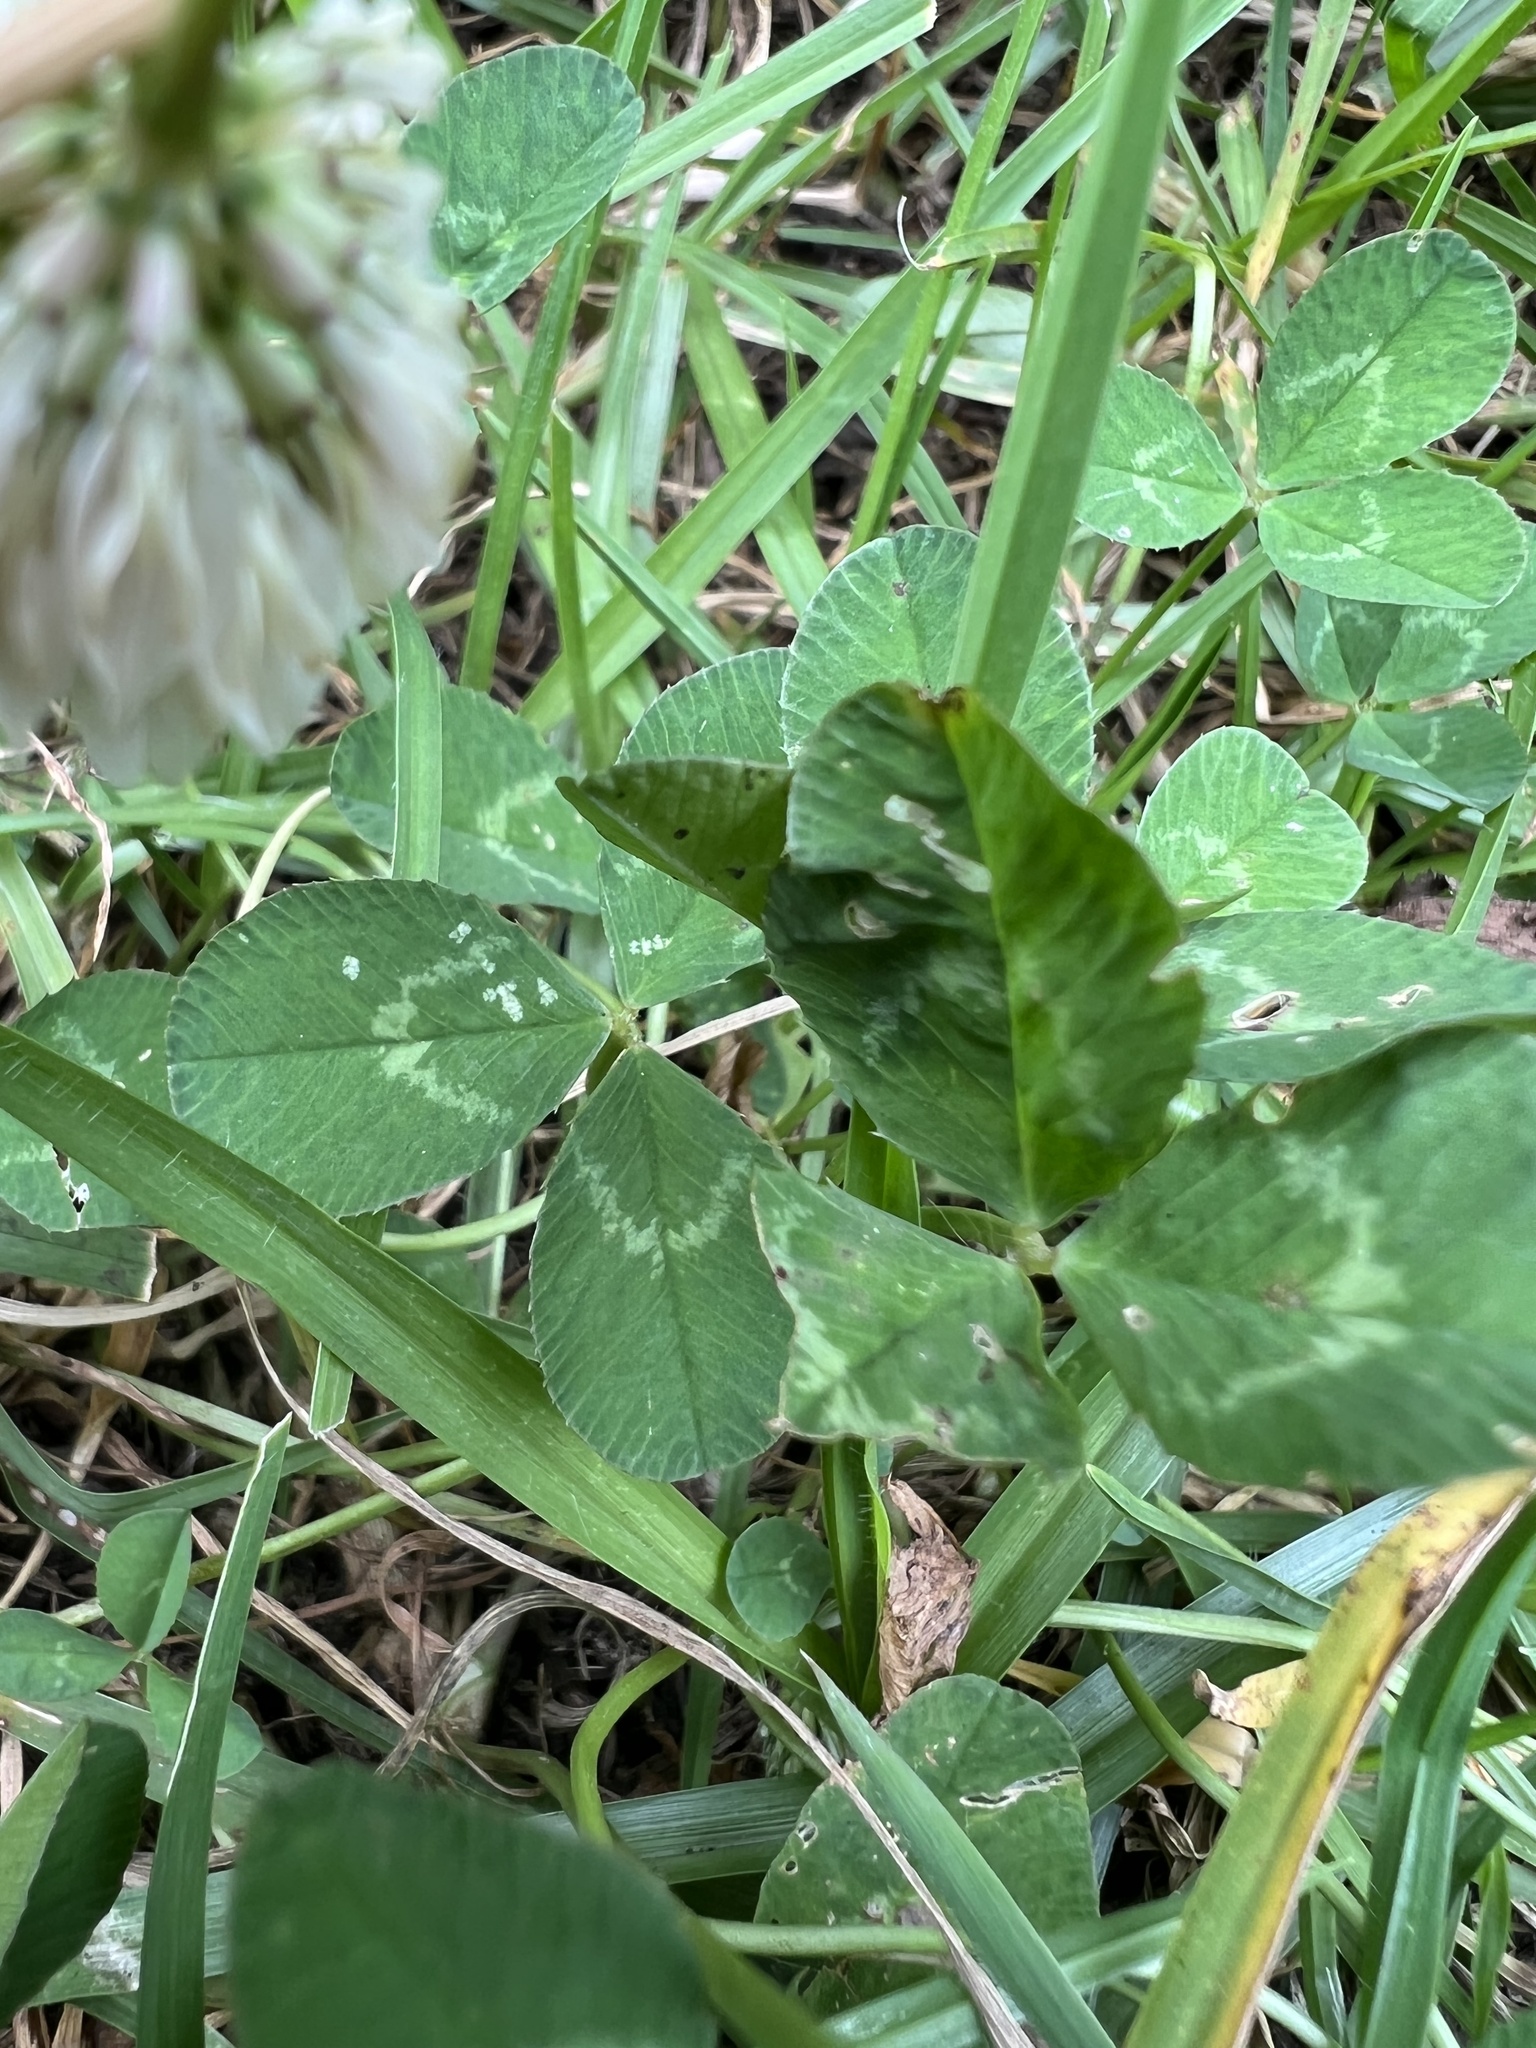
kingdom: Plantae
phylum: Tracheophyta
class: Magnoliopsida
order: Fabales
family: Fabaceae
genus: Trifolium
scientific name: Trifolium repens
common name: White clover
